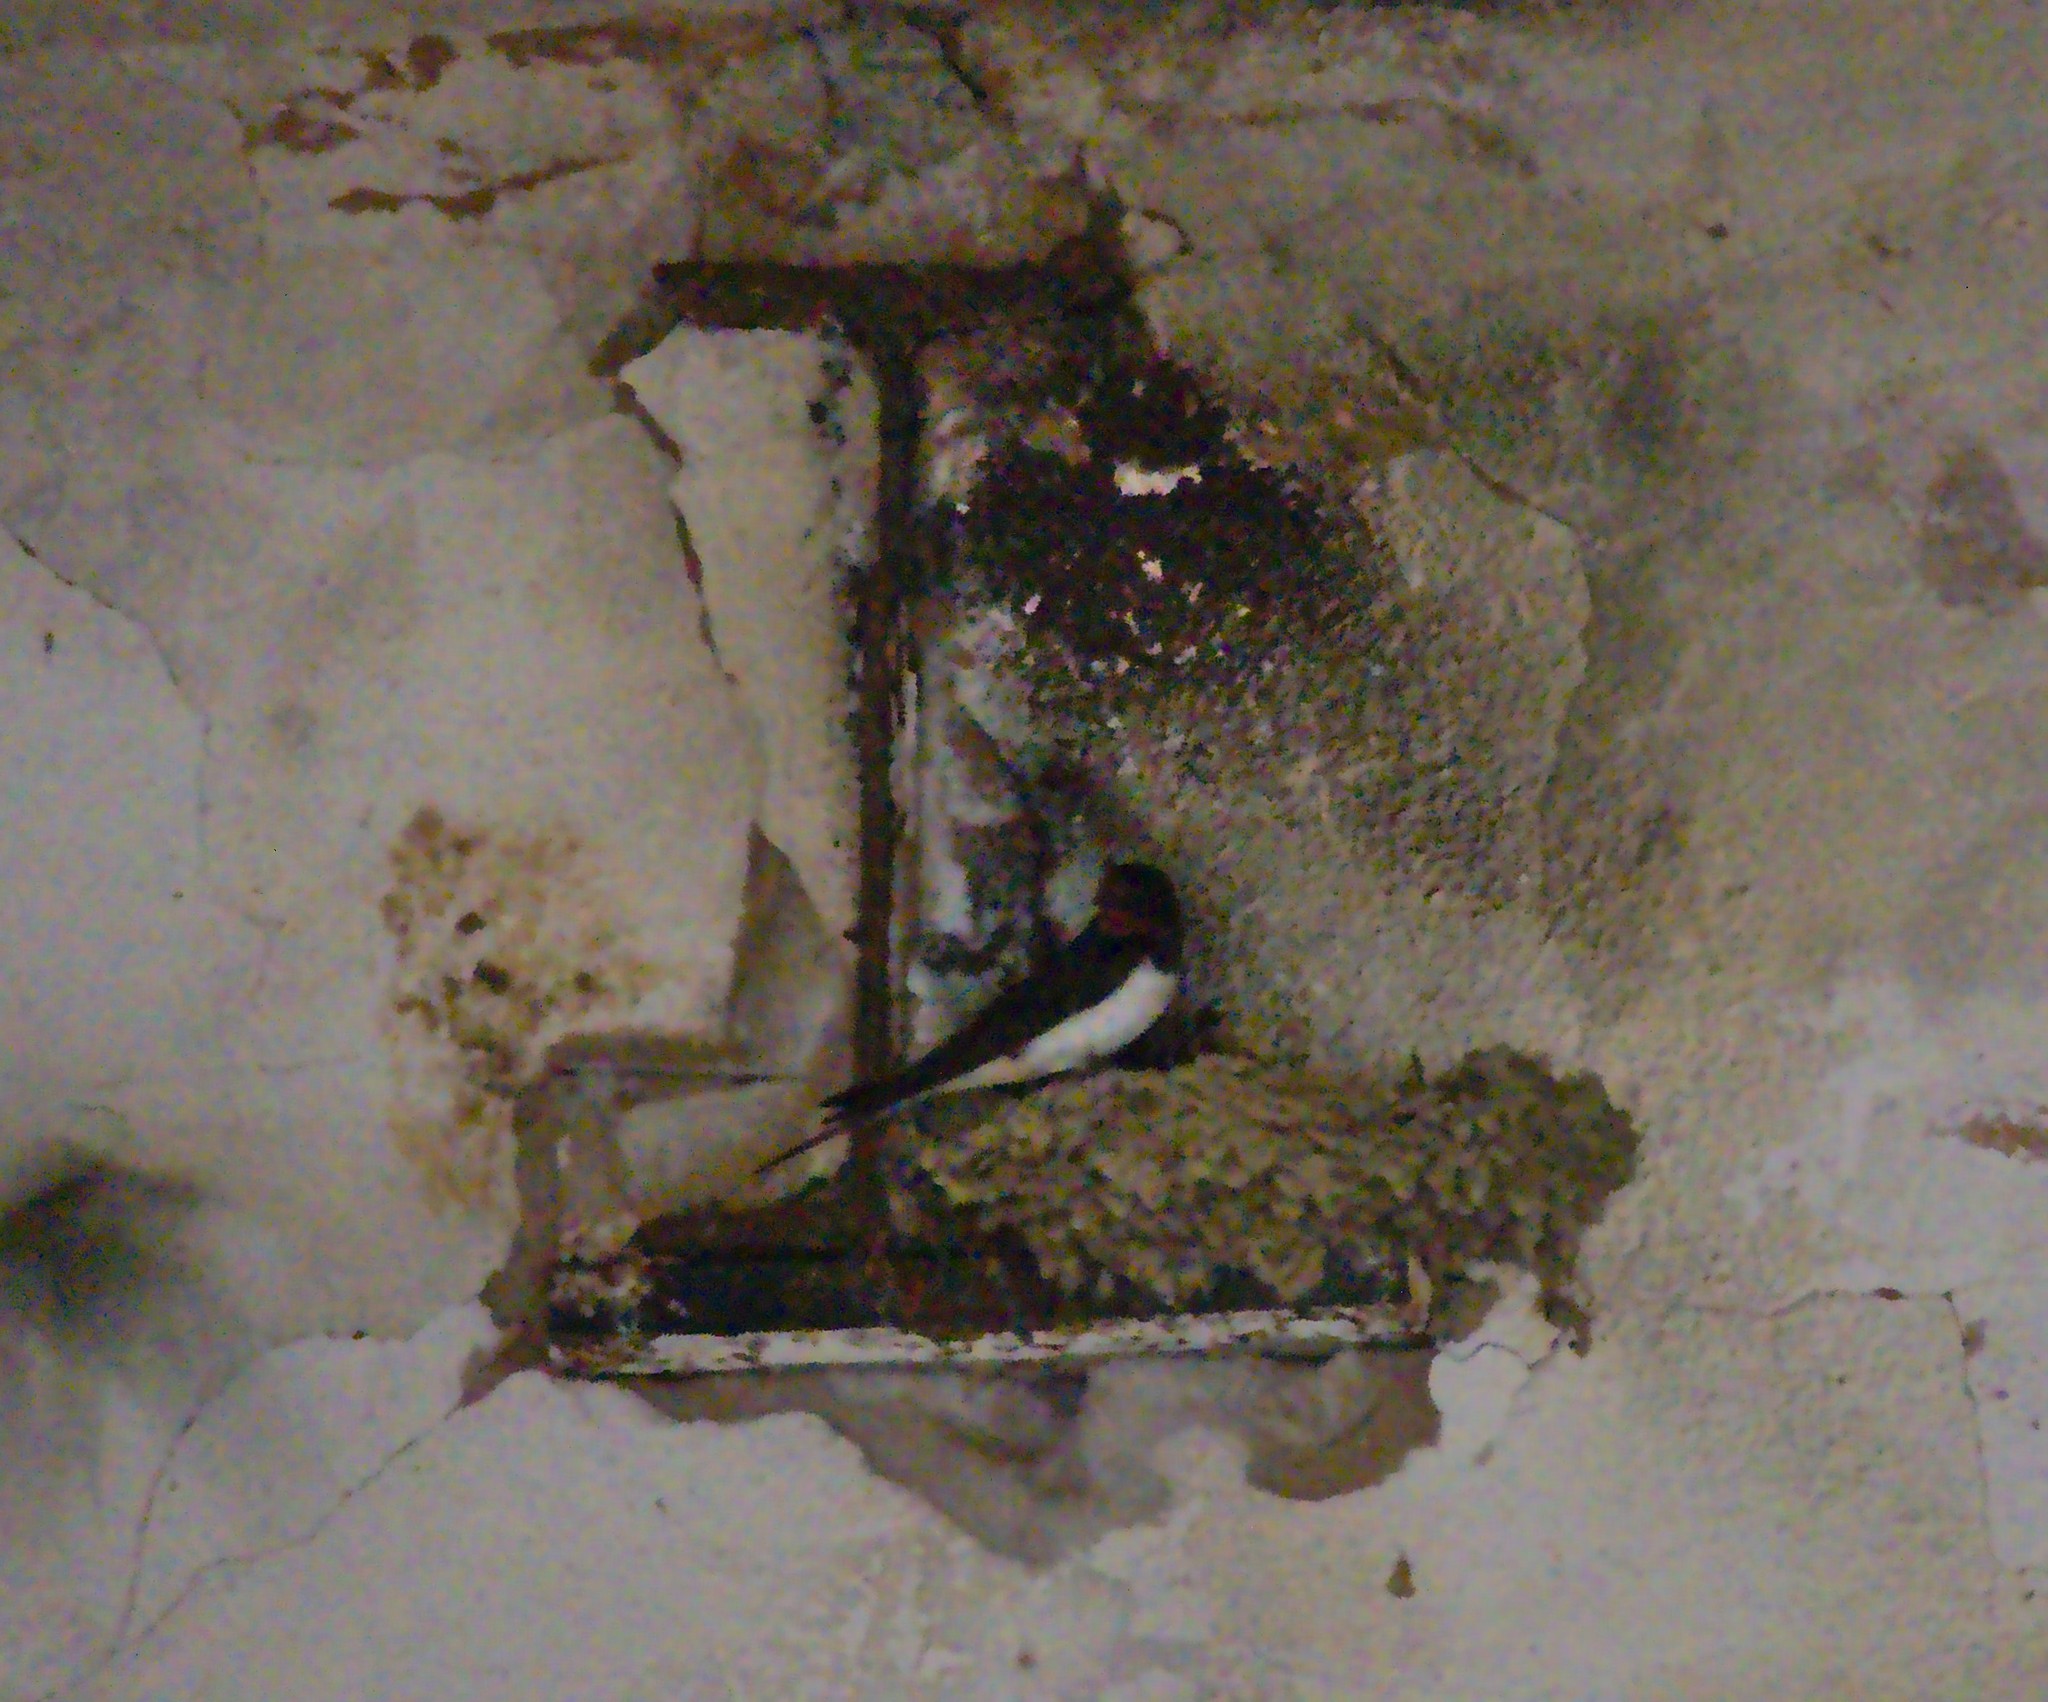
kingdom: Animalia
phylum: Chordata
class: Aves
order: Passeriformes
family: Hirundinidae
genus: Hirundo
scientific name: Hirundo rustica
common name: Barn swallow
